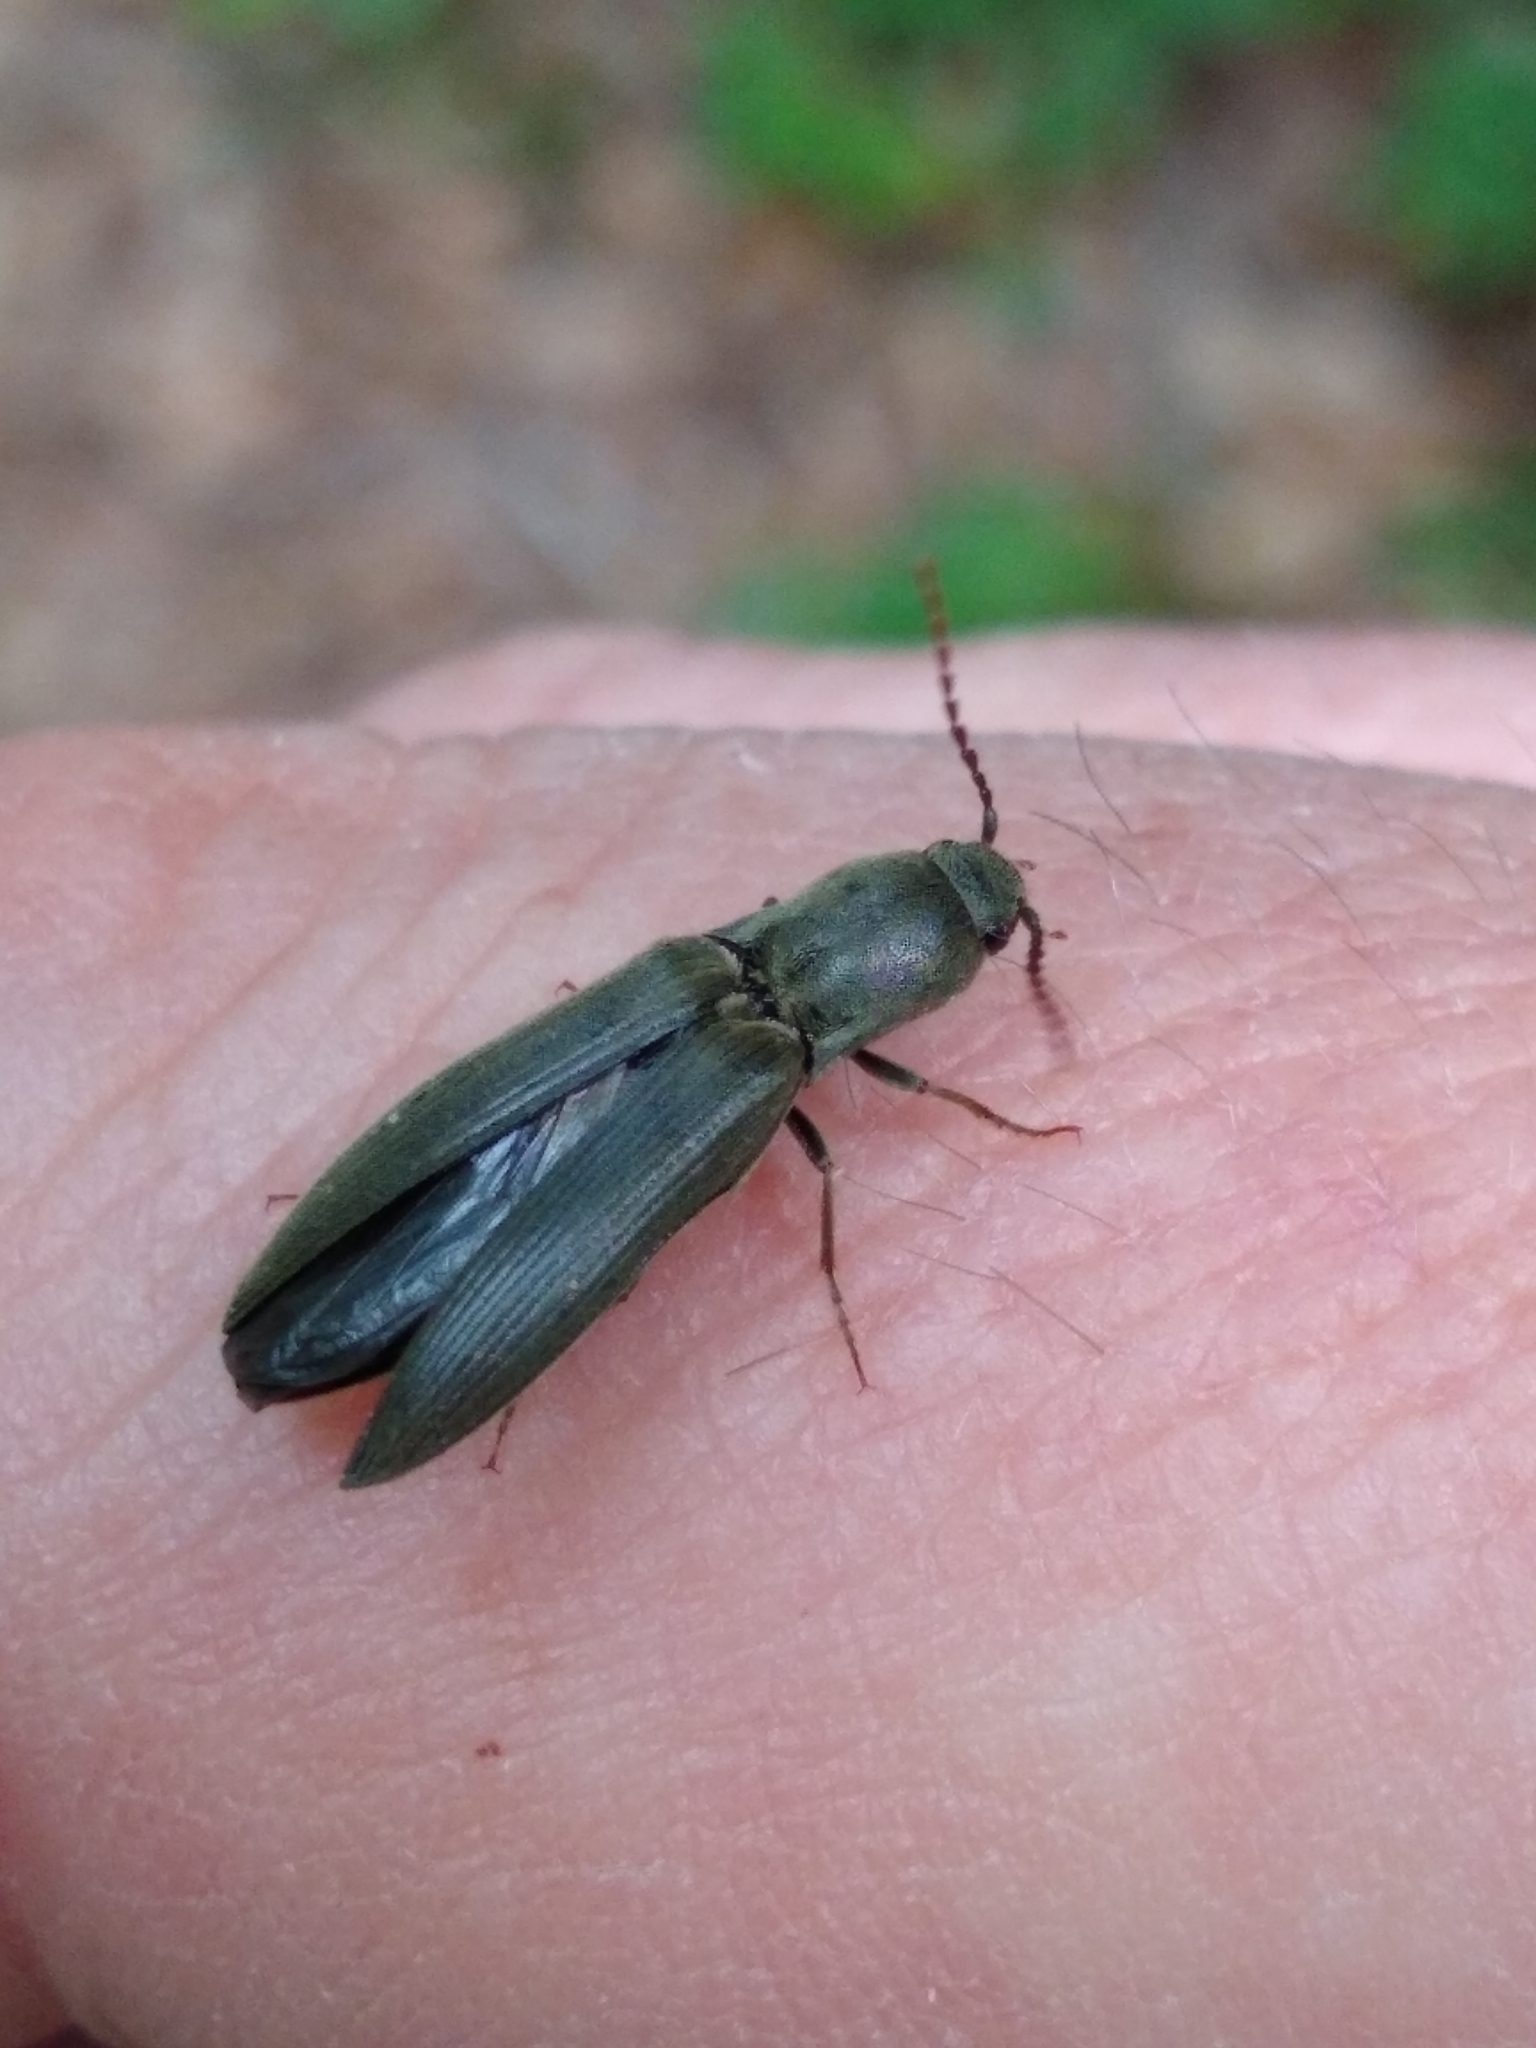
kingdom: Animalia
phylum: Arthropoda
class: Insecta
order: Coleoptera
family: Elateridae
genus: Agriotes
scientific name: Agriotes pilosellus
